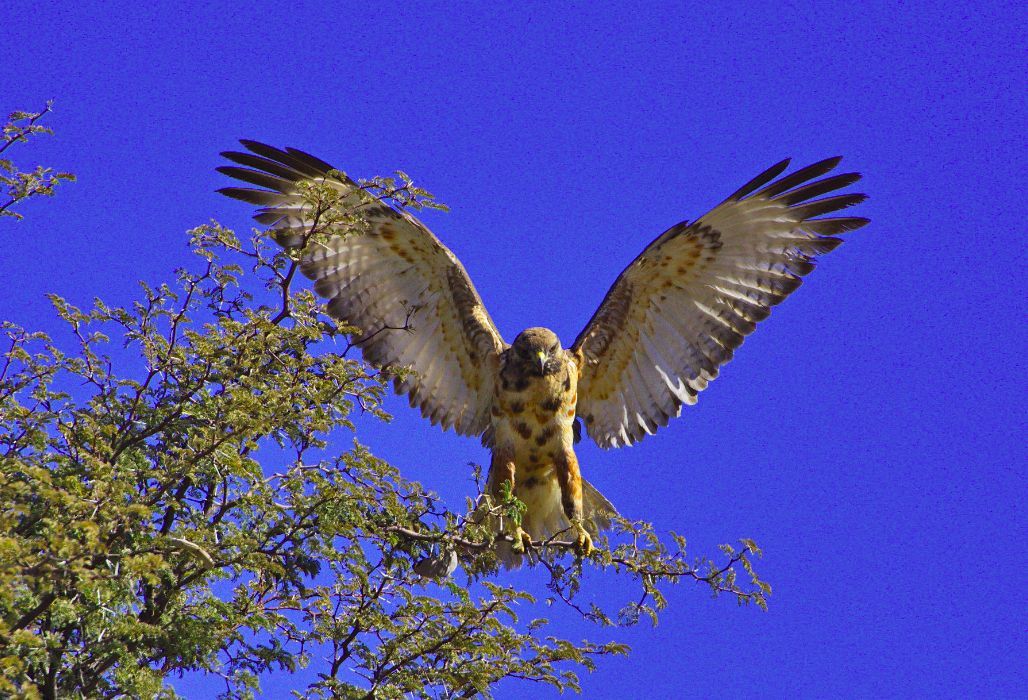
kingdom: Animalia
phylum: Chordata
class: Aves
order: Accipitriformes
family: Accipitridae
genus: Buteo
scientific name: Buteo buteo
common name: Common buzzard
